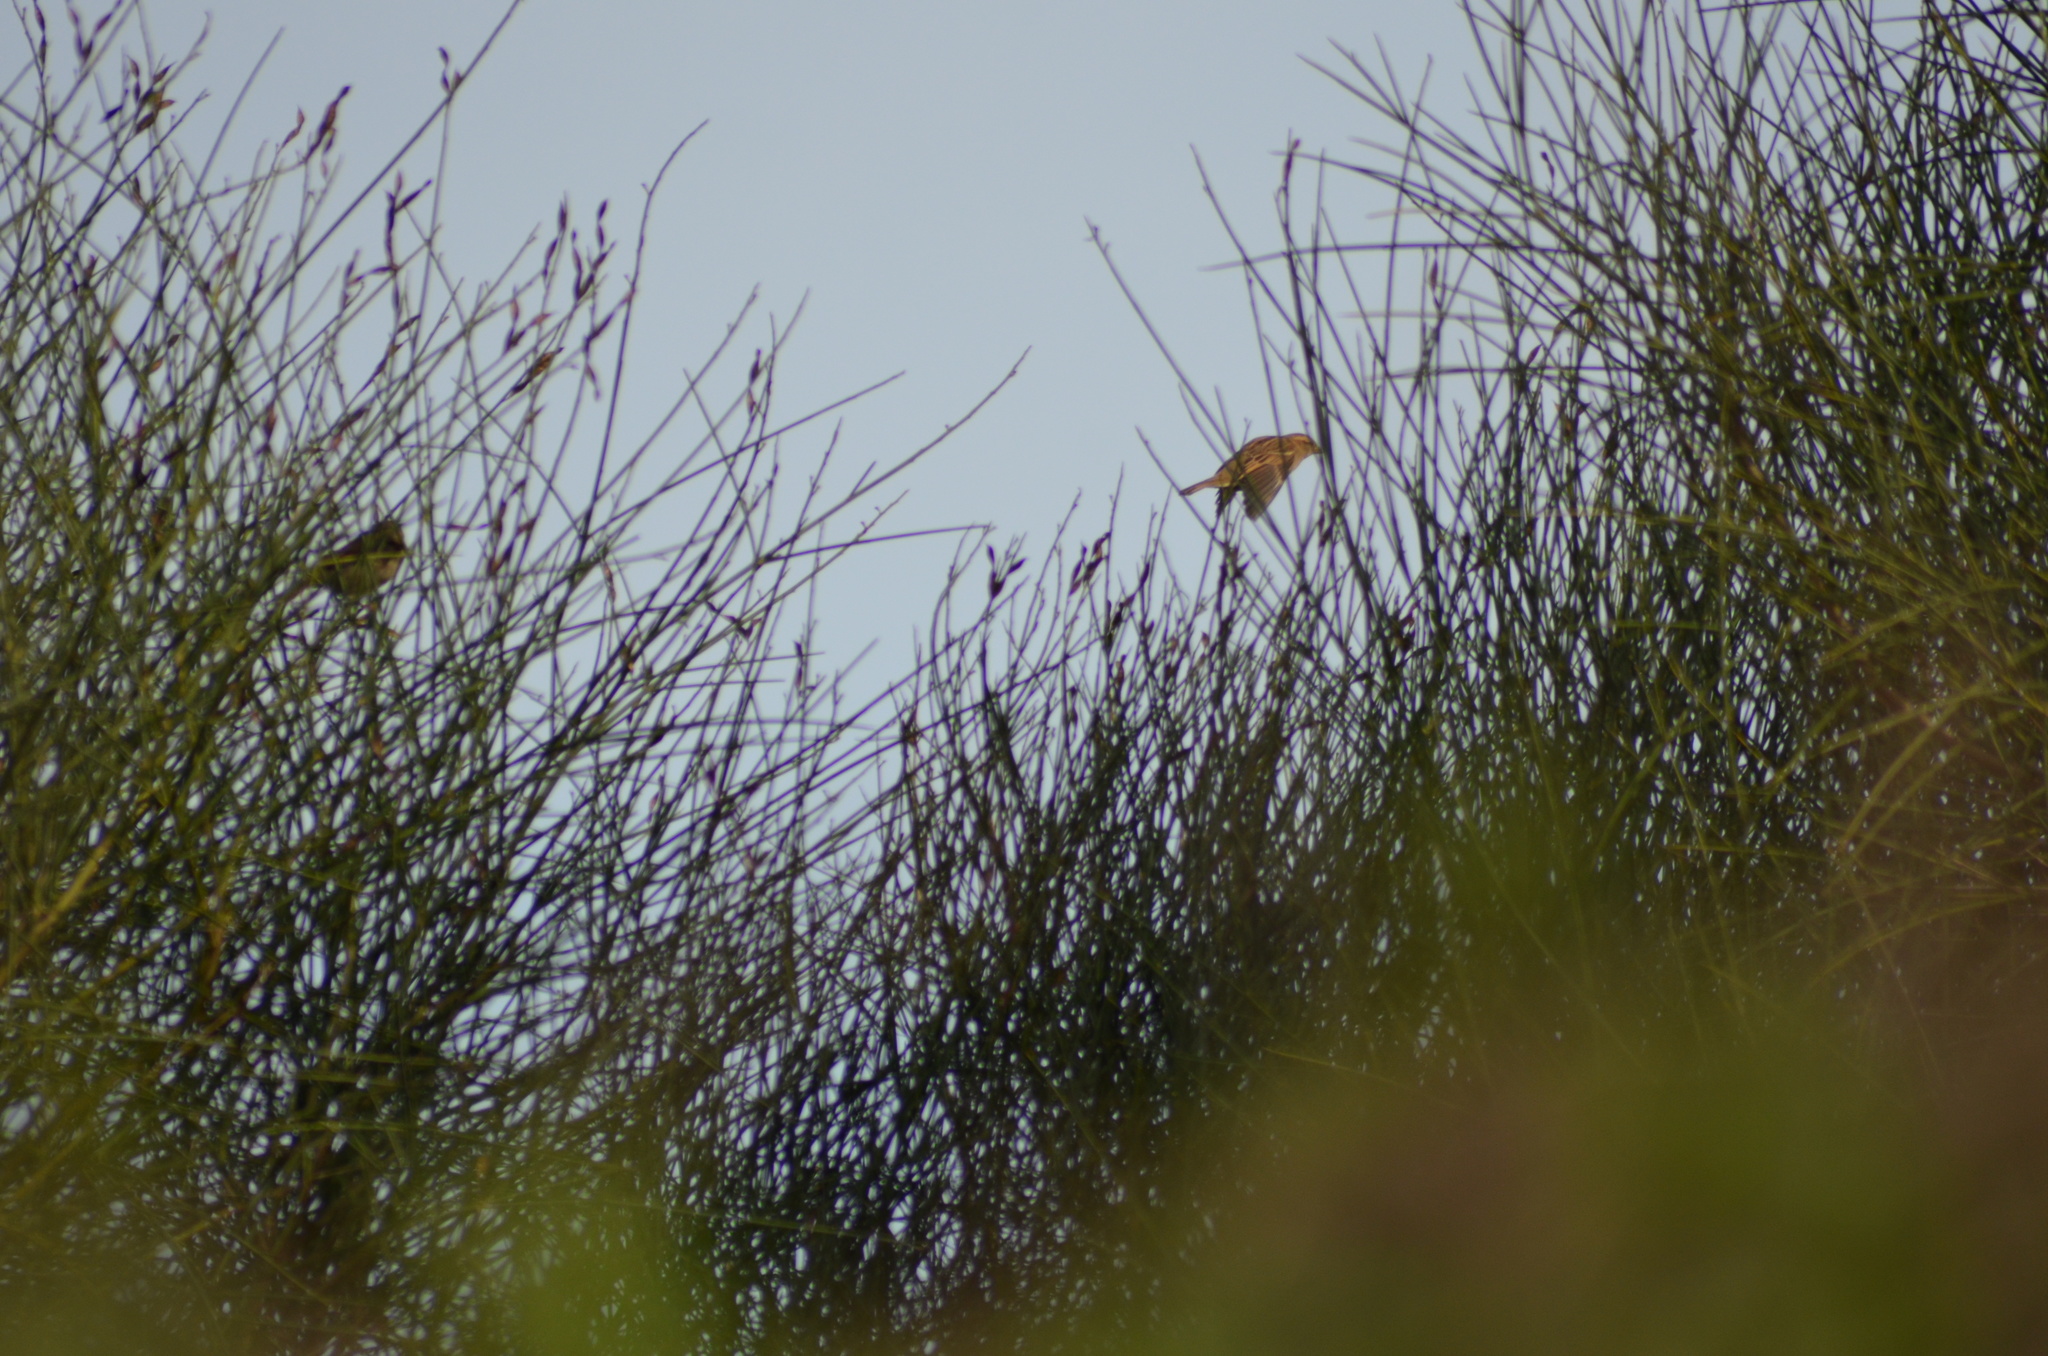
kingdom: Animalia
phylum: Chordata
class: Aves
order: Passeriformes
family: Passeridae
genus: Passer
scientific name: Passer domesticus
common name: House sparrow
